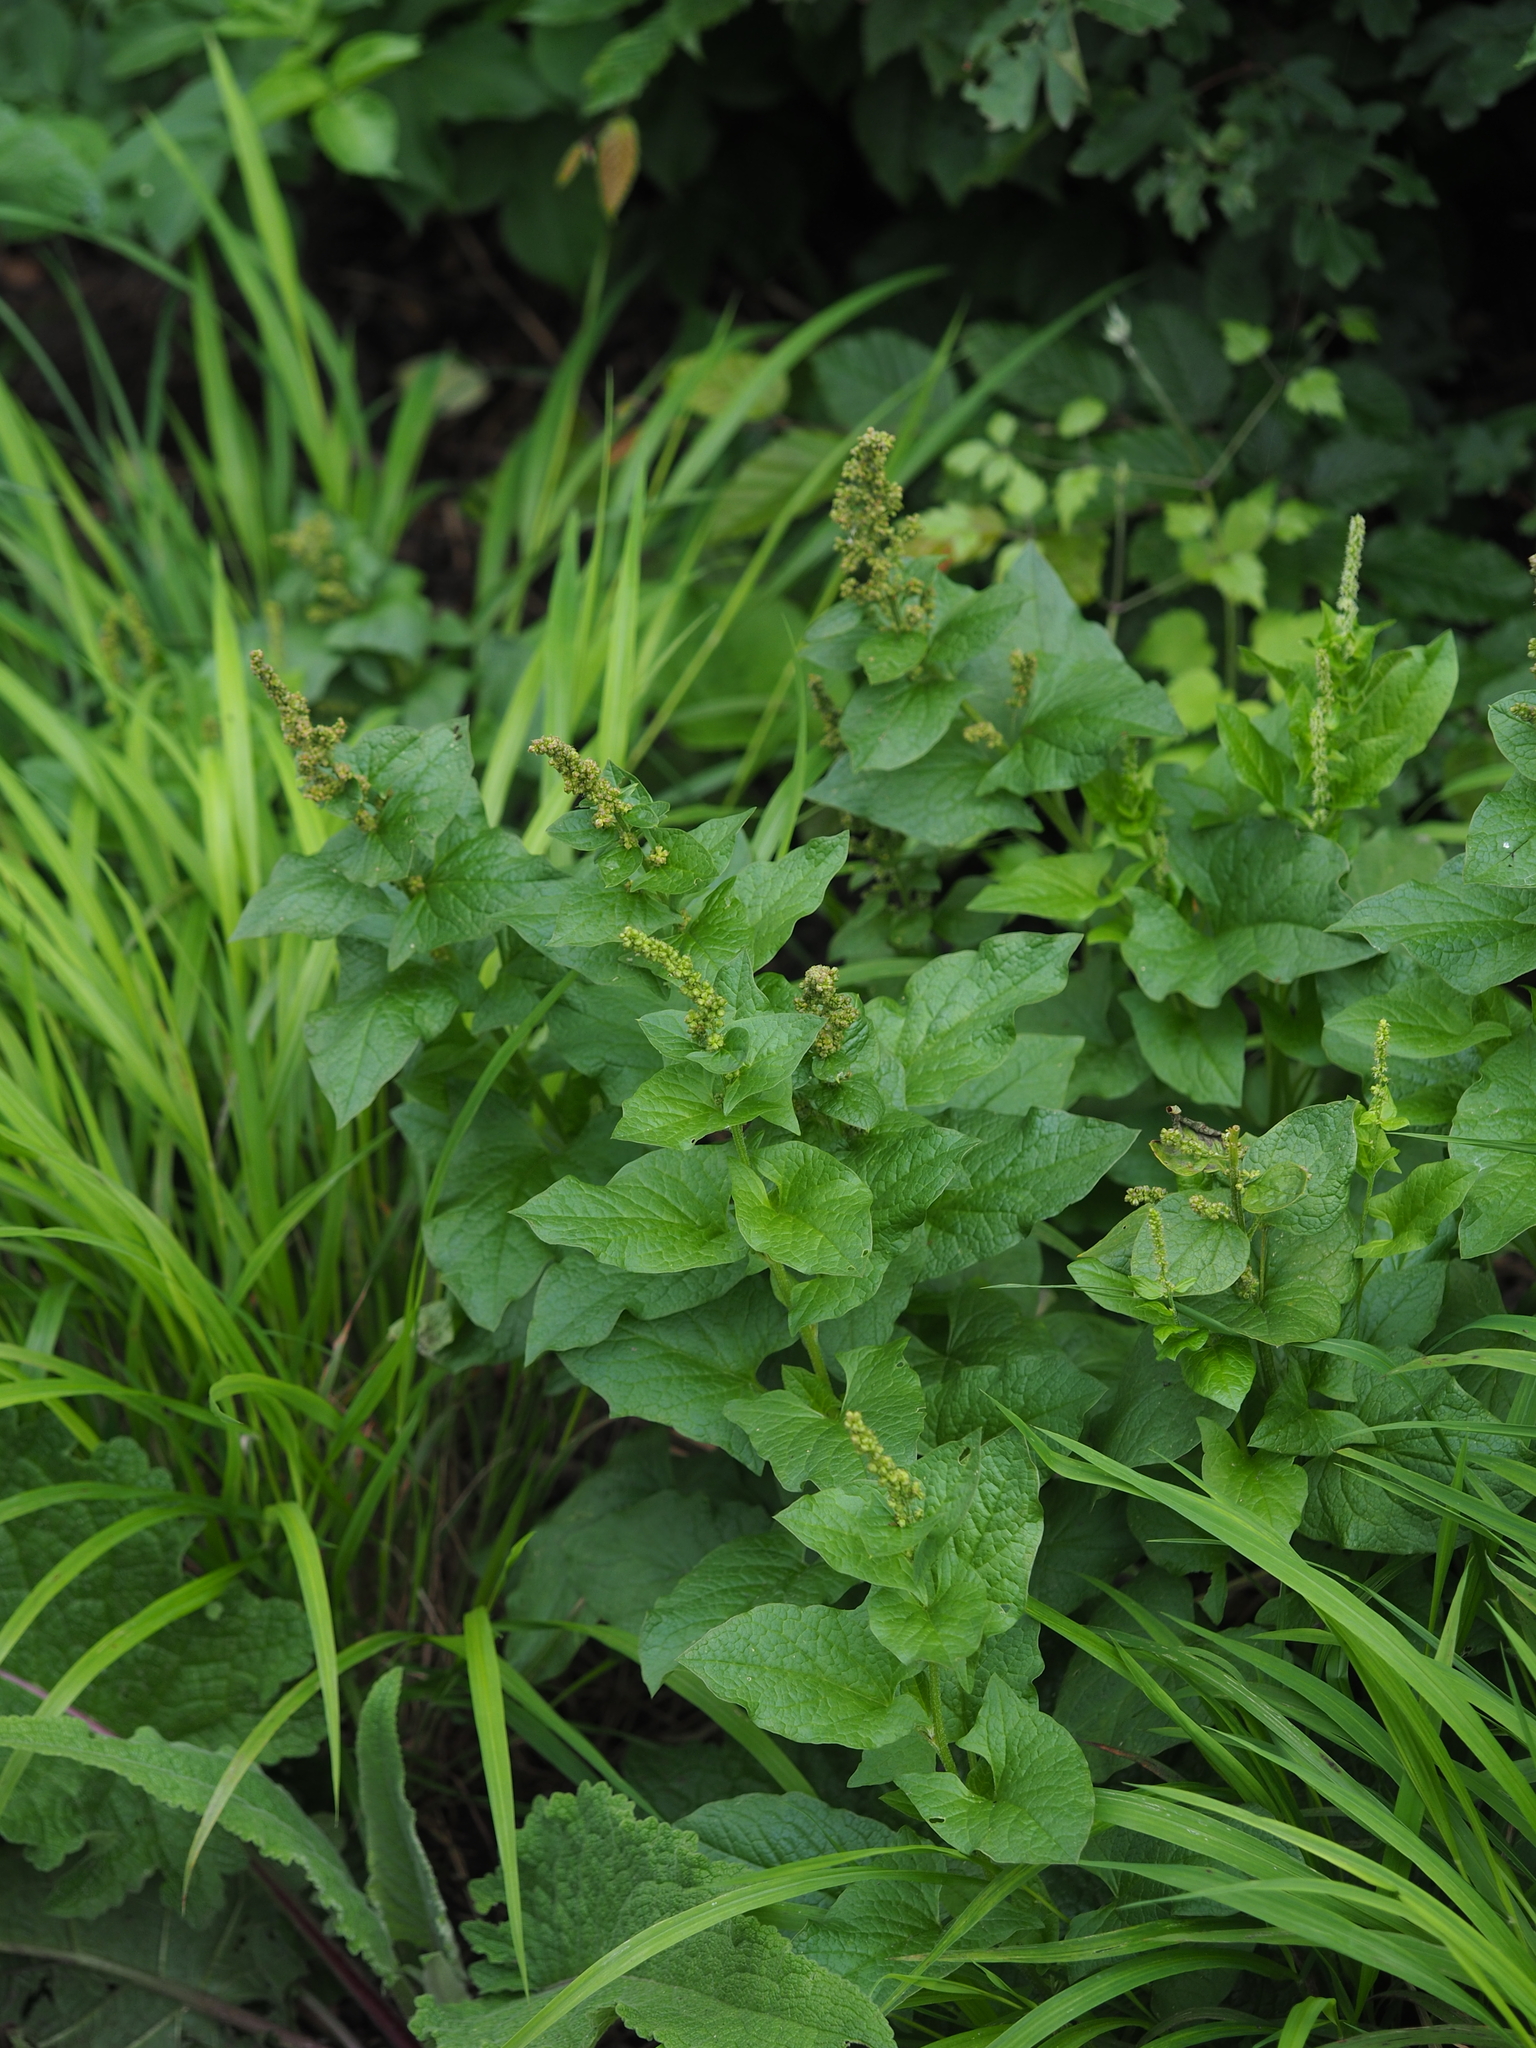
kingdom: Plantae
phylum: Tracheophyta
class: Magnoliopsida
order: Caryophyllales
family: Amaranthaceae
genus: Blitum
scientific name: Blitum bonus-henricus
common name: Good king henry
